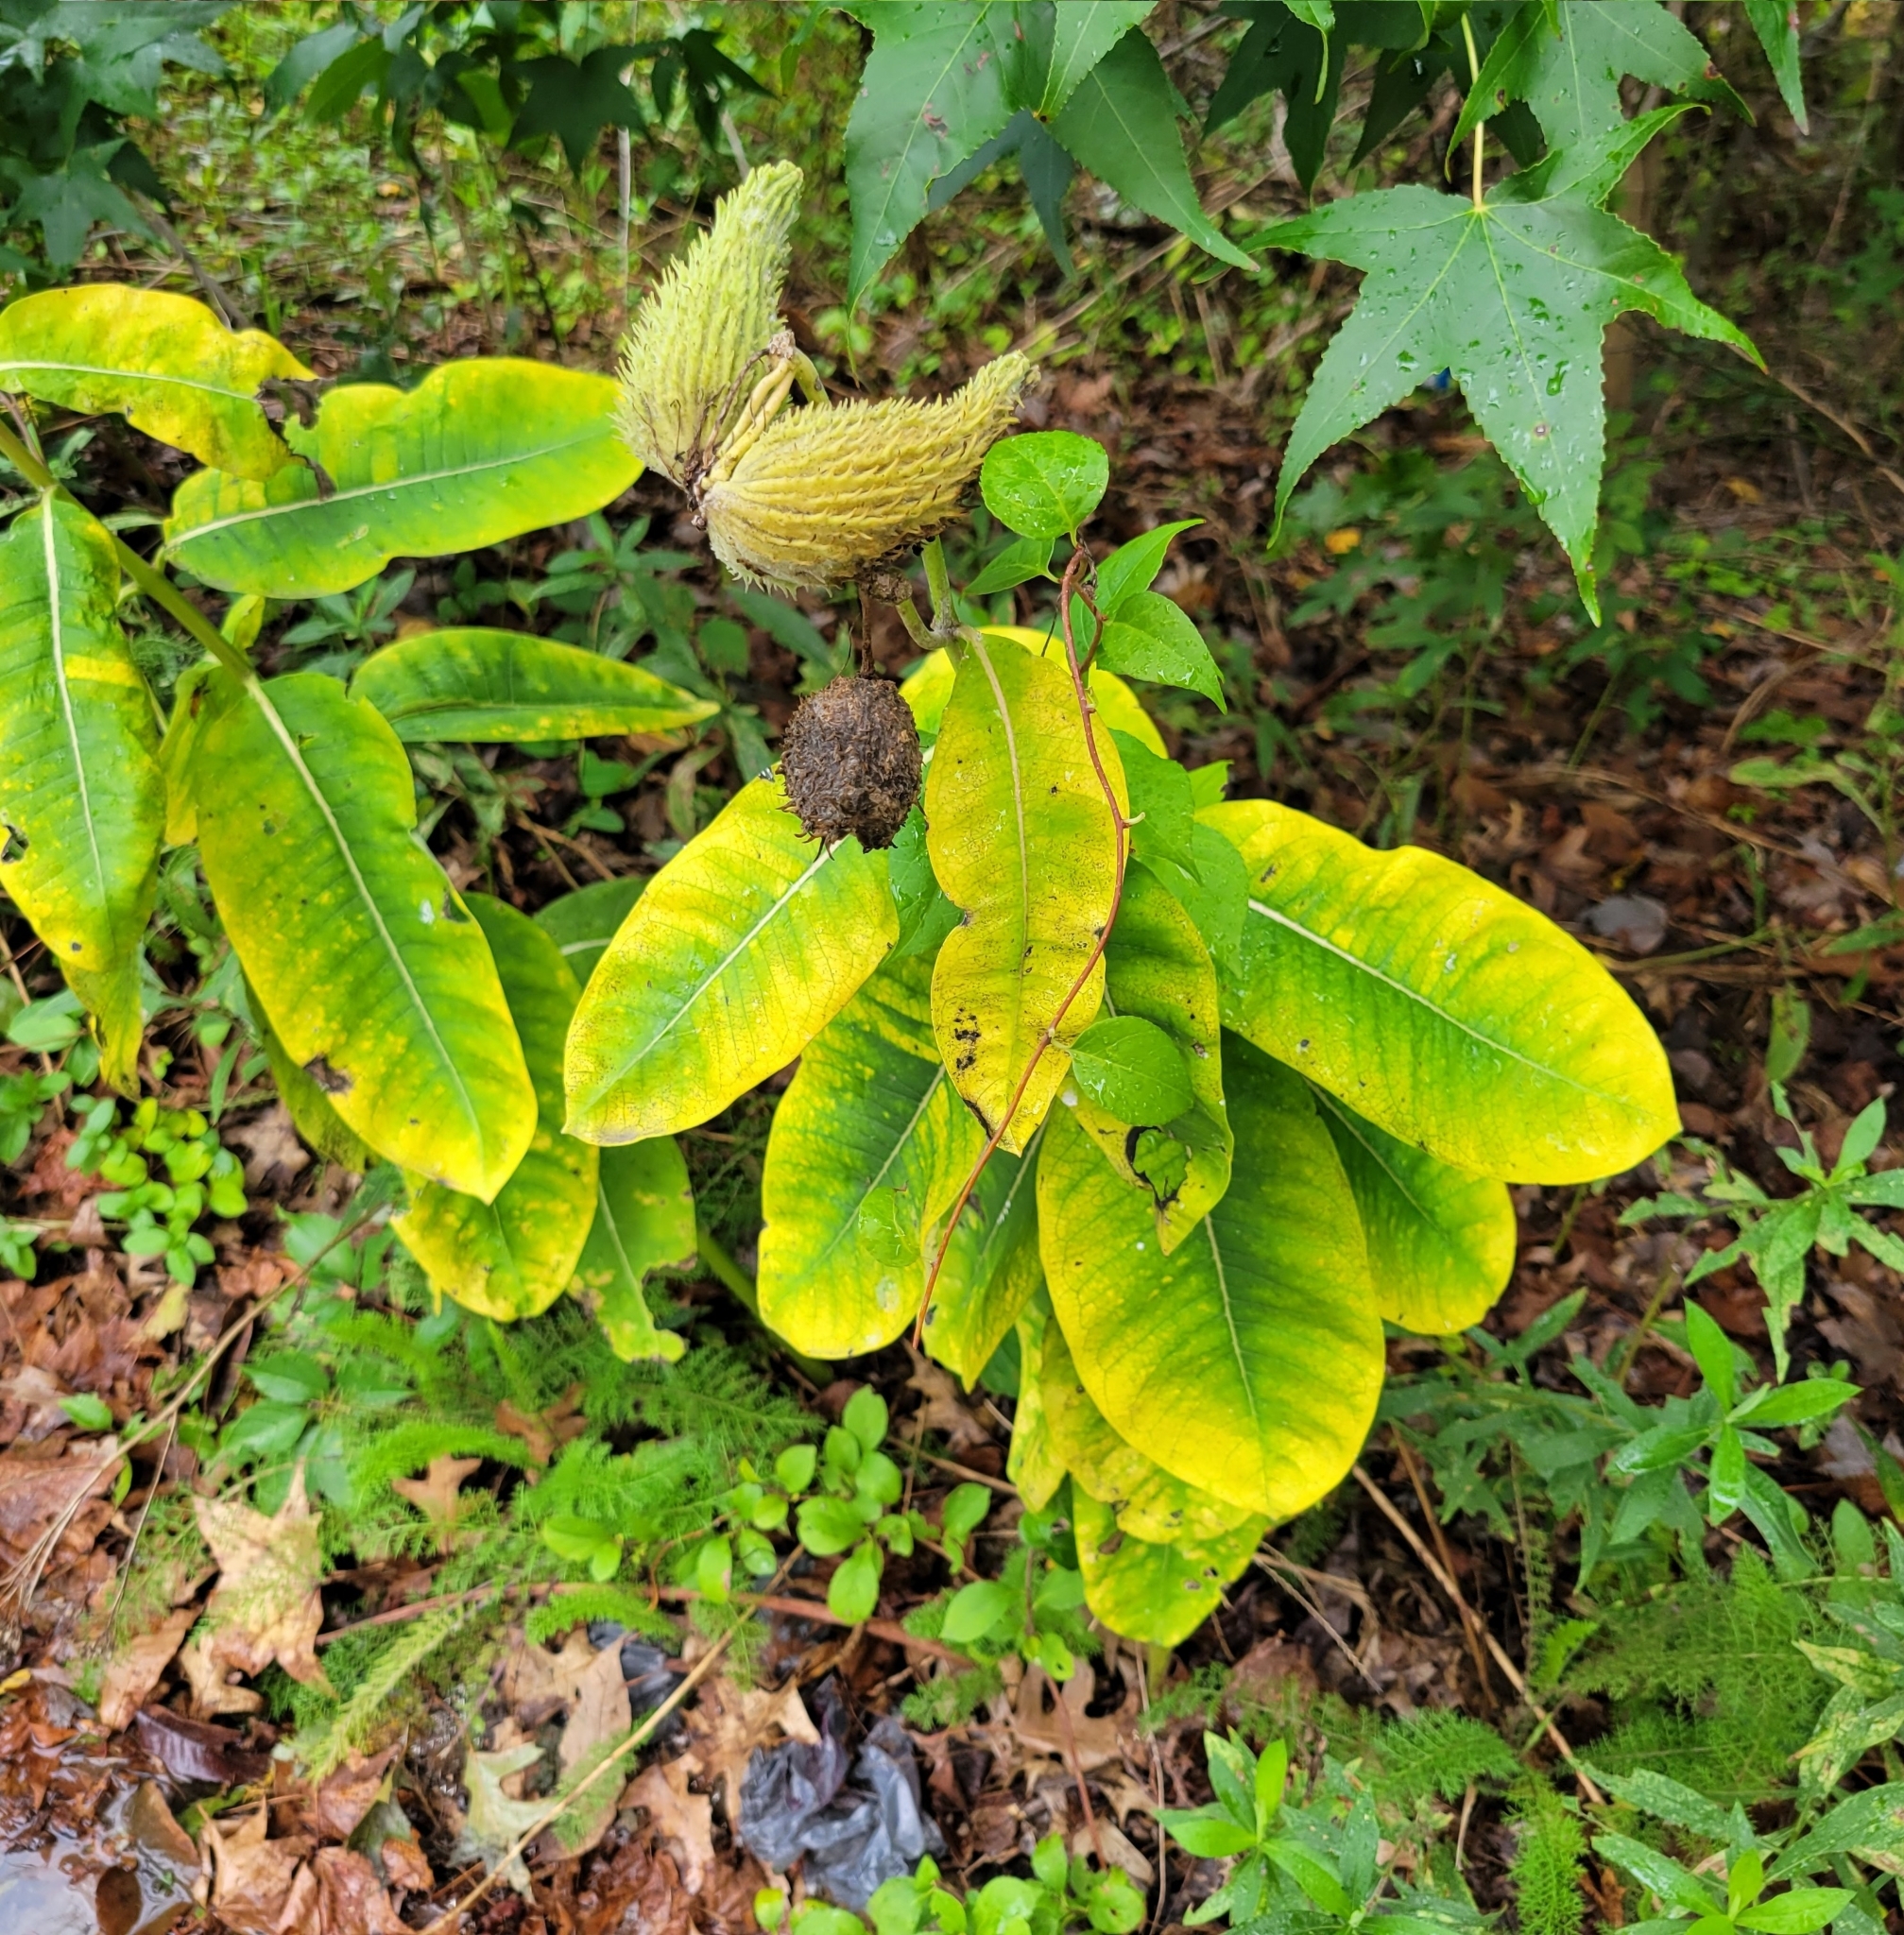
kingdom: Plantae
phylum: Tracheophyta
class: Magnoliopsida
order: Gentianales
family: Apocynaceae
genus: Asclepias
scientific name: Asclepias syriaca
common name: Common milkweed
